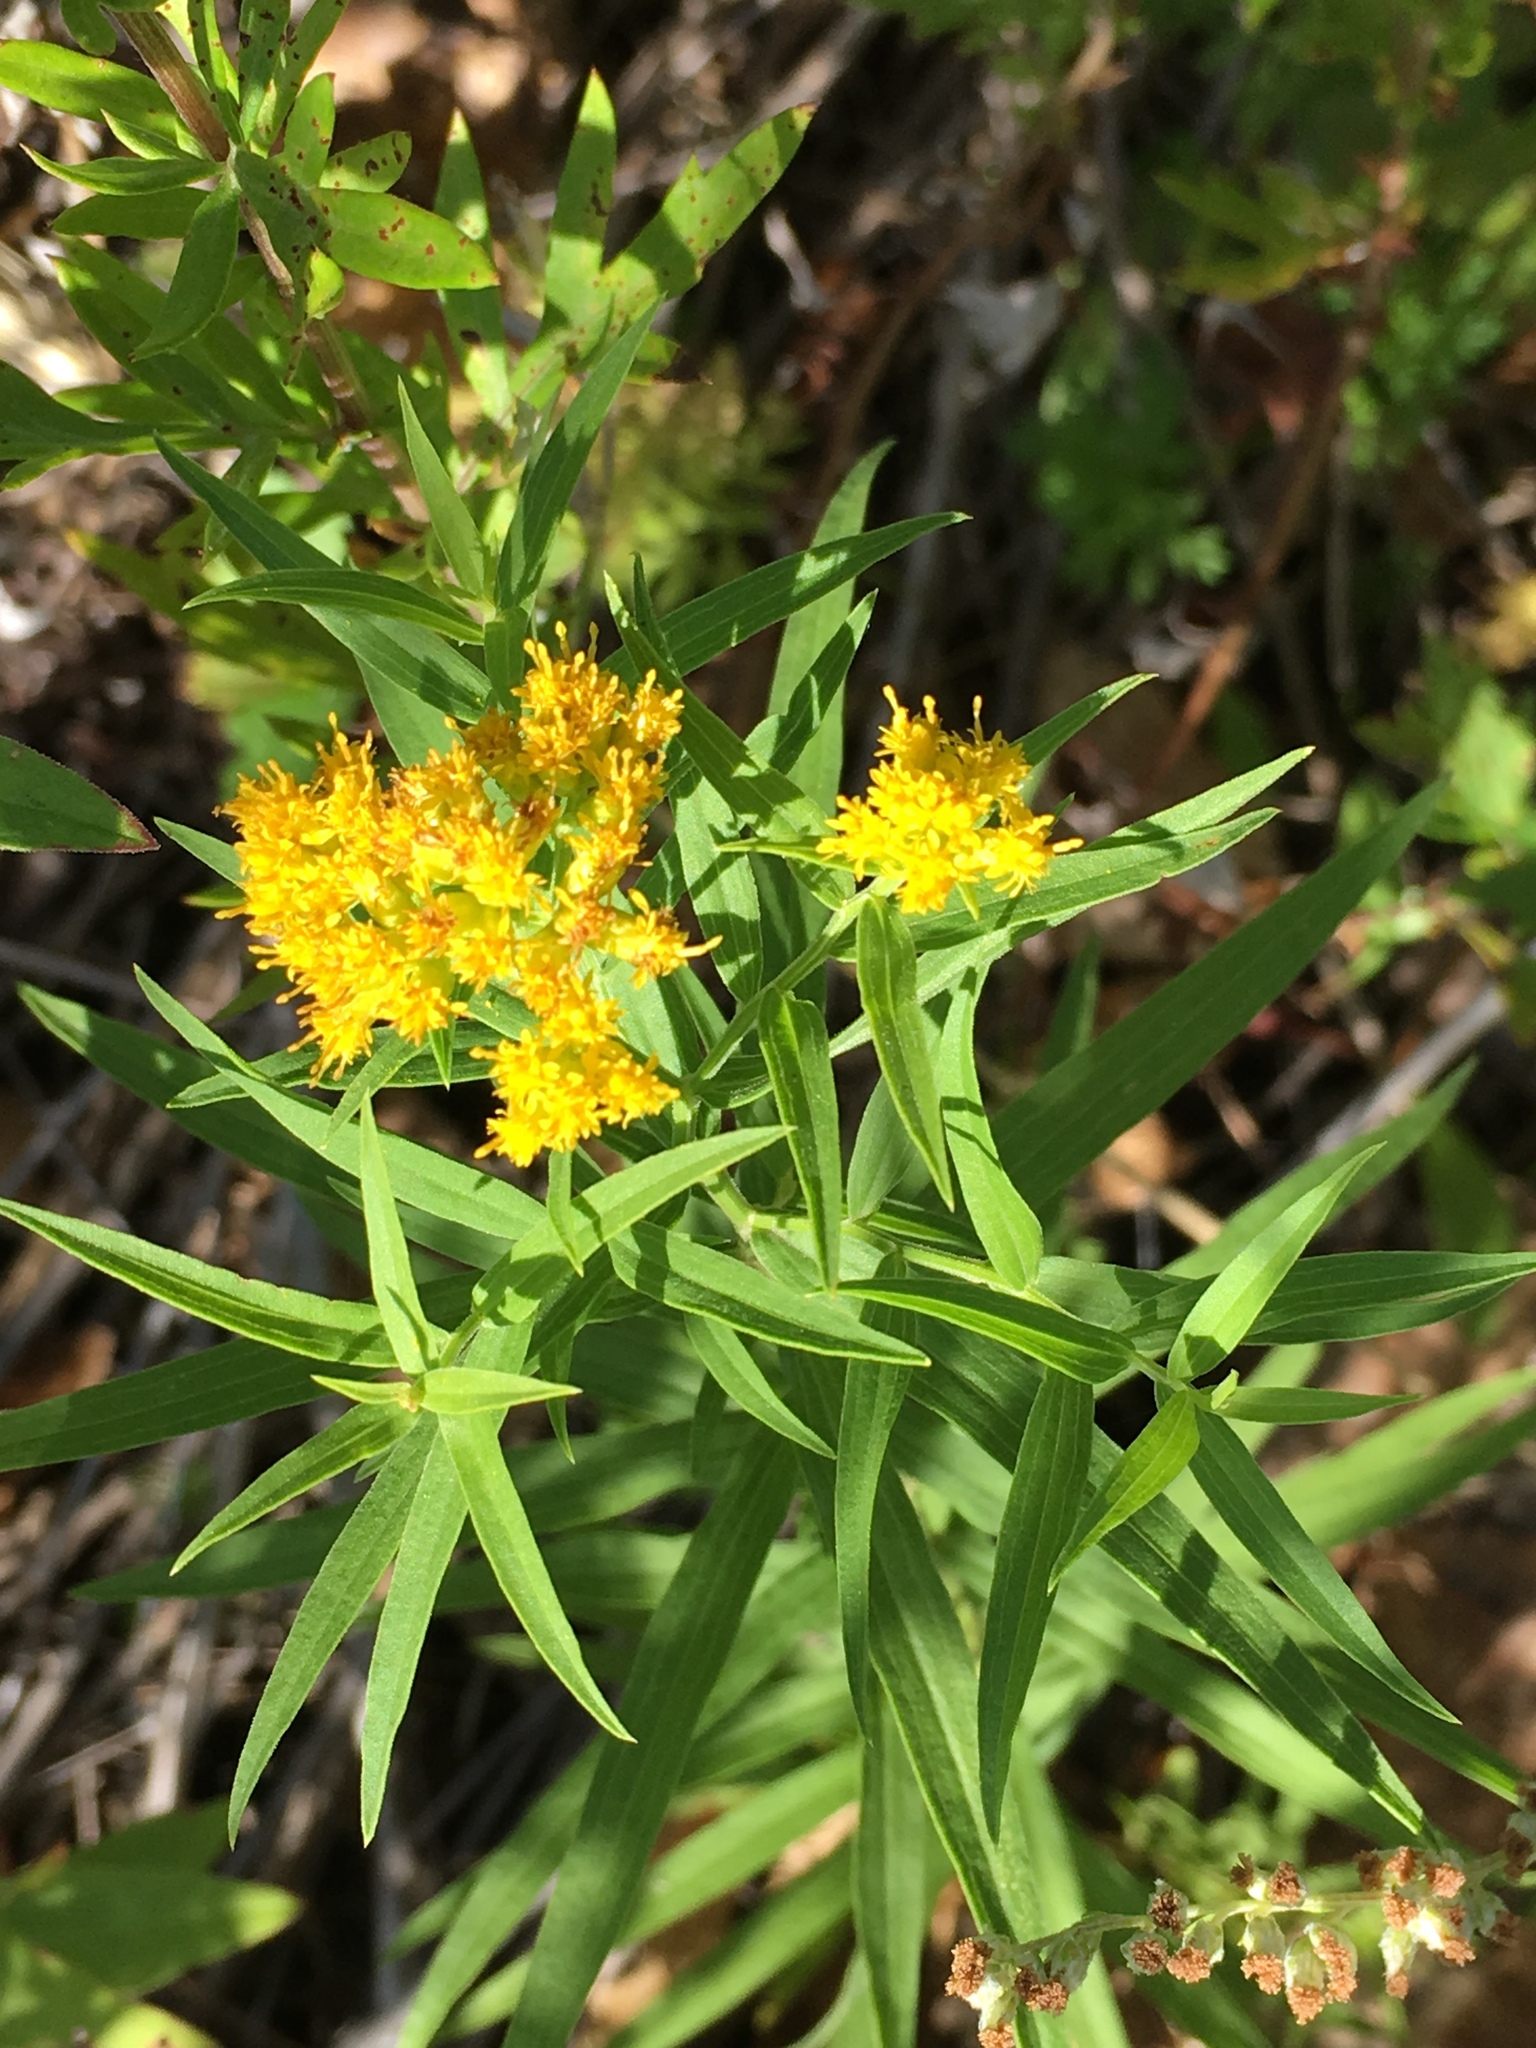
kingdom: Plantae
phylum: Tracheophyta
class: Magnoliopsida
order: Asterales
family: Asteraceae
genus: Euthamia
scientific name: Euthamia graminifolia
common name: Common goldentop
